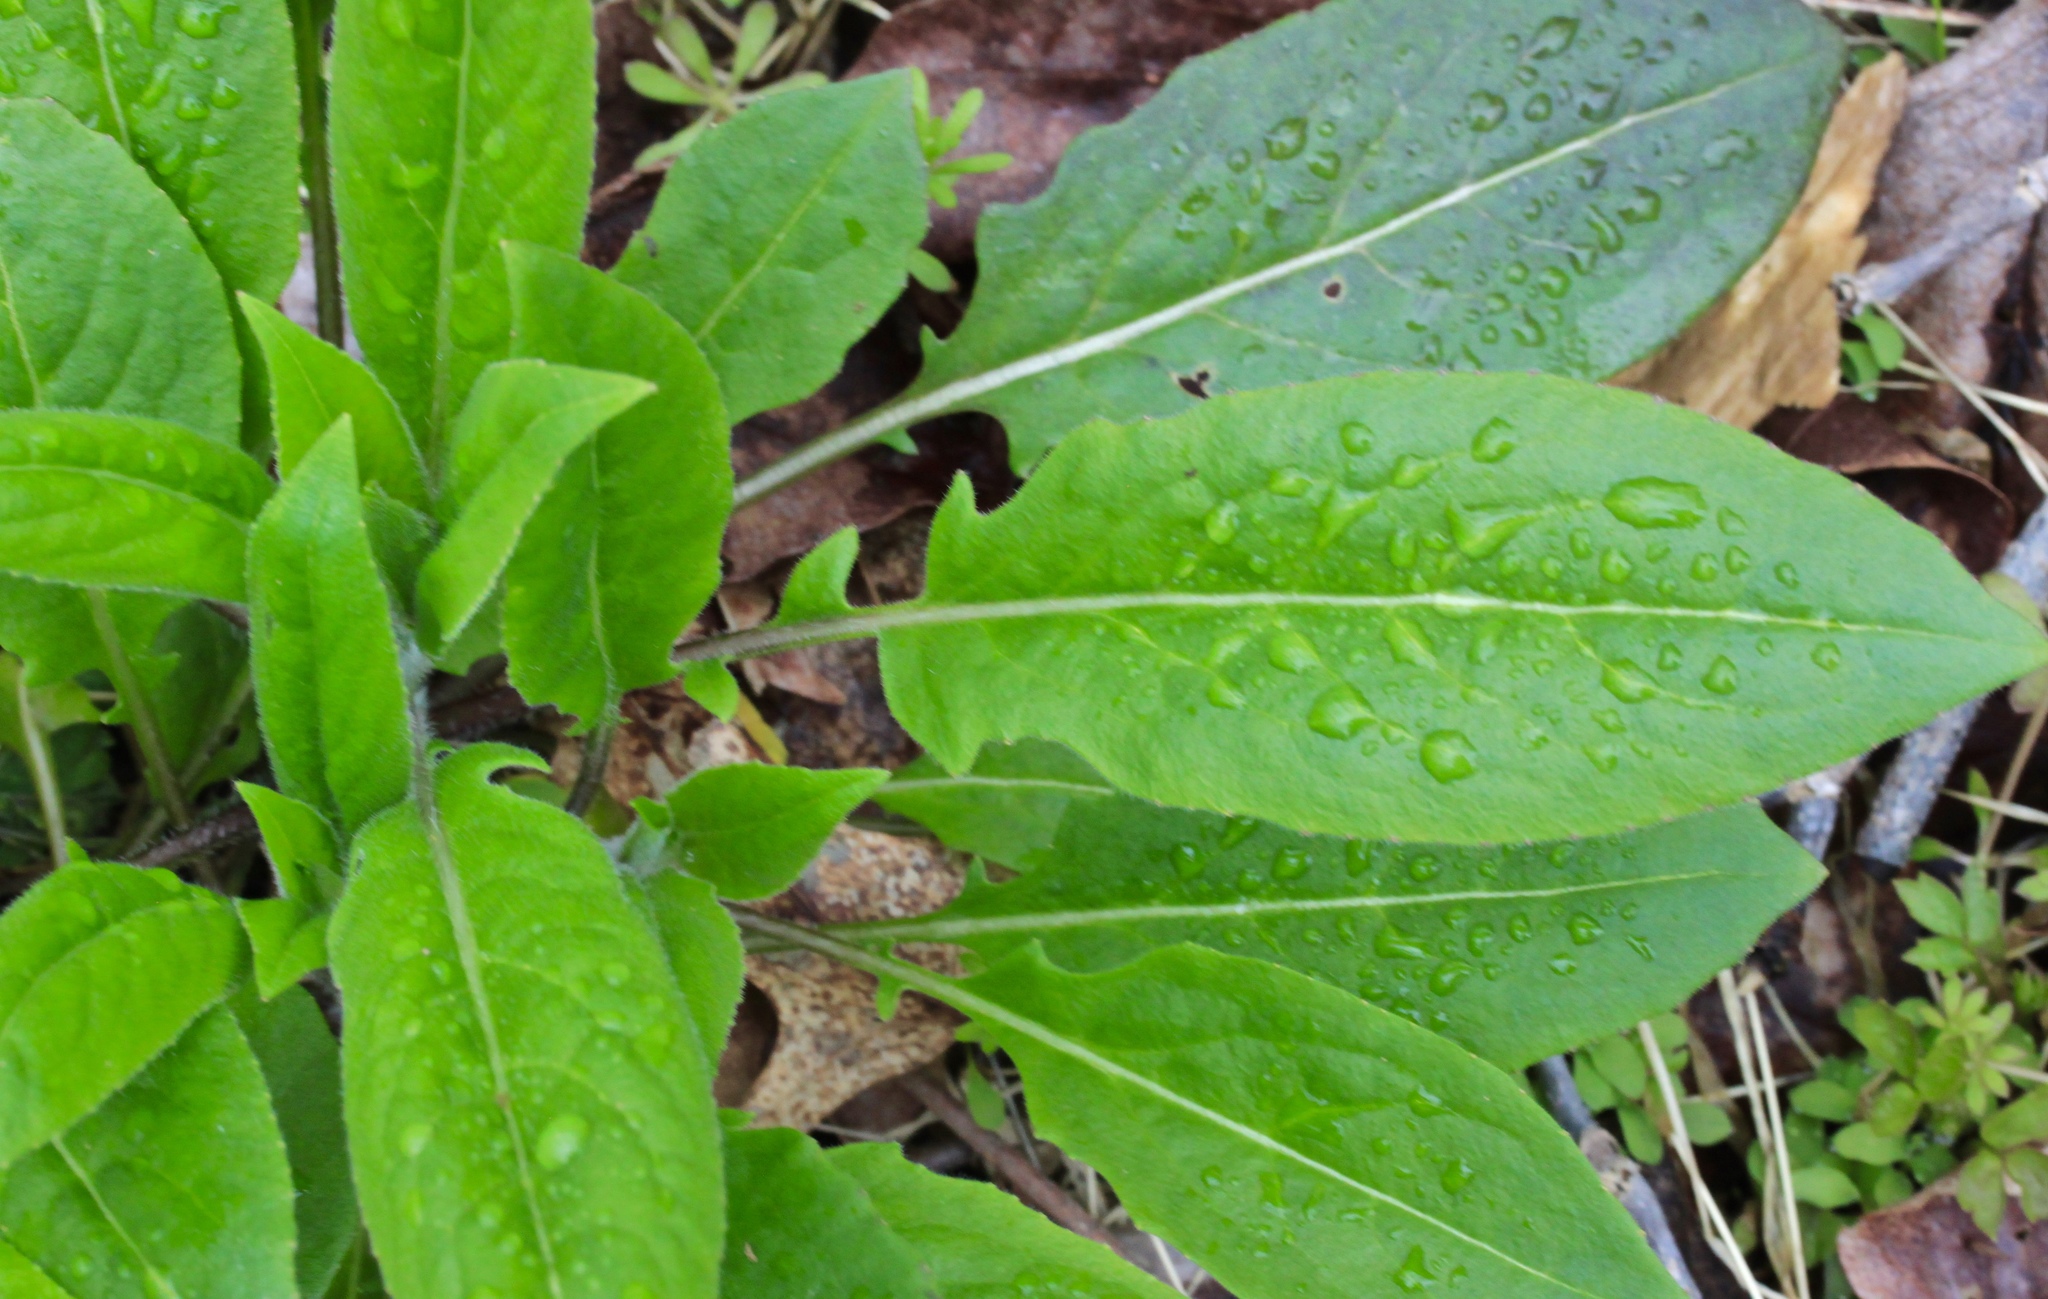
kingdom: Plantae
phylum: Tracheophyta
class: Magnoliopsida
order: Brassicales
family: Brassicaceae
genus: Hesperis
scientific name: Hesperis matronalis
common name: Dame's-violet
